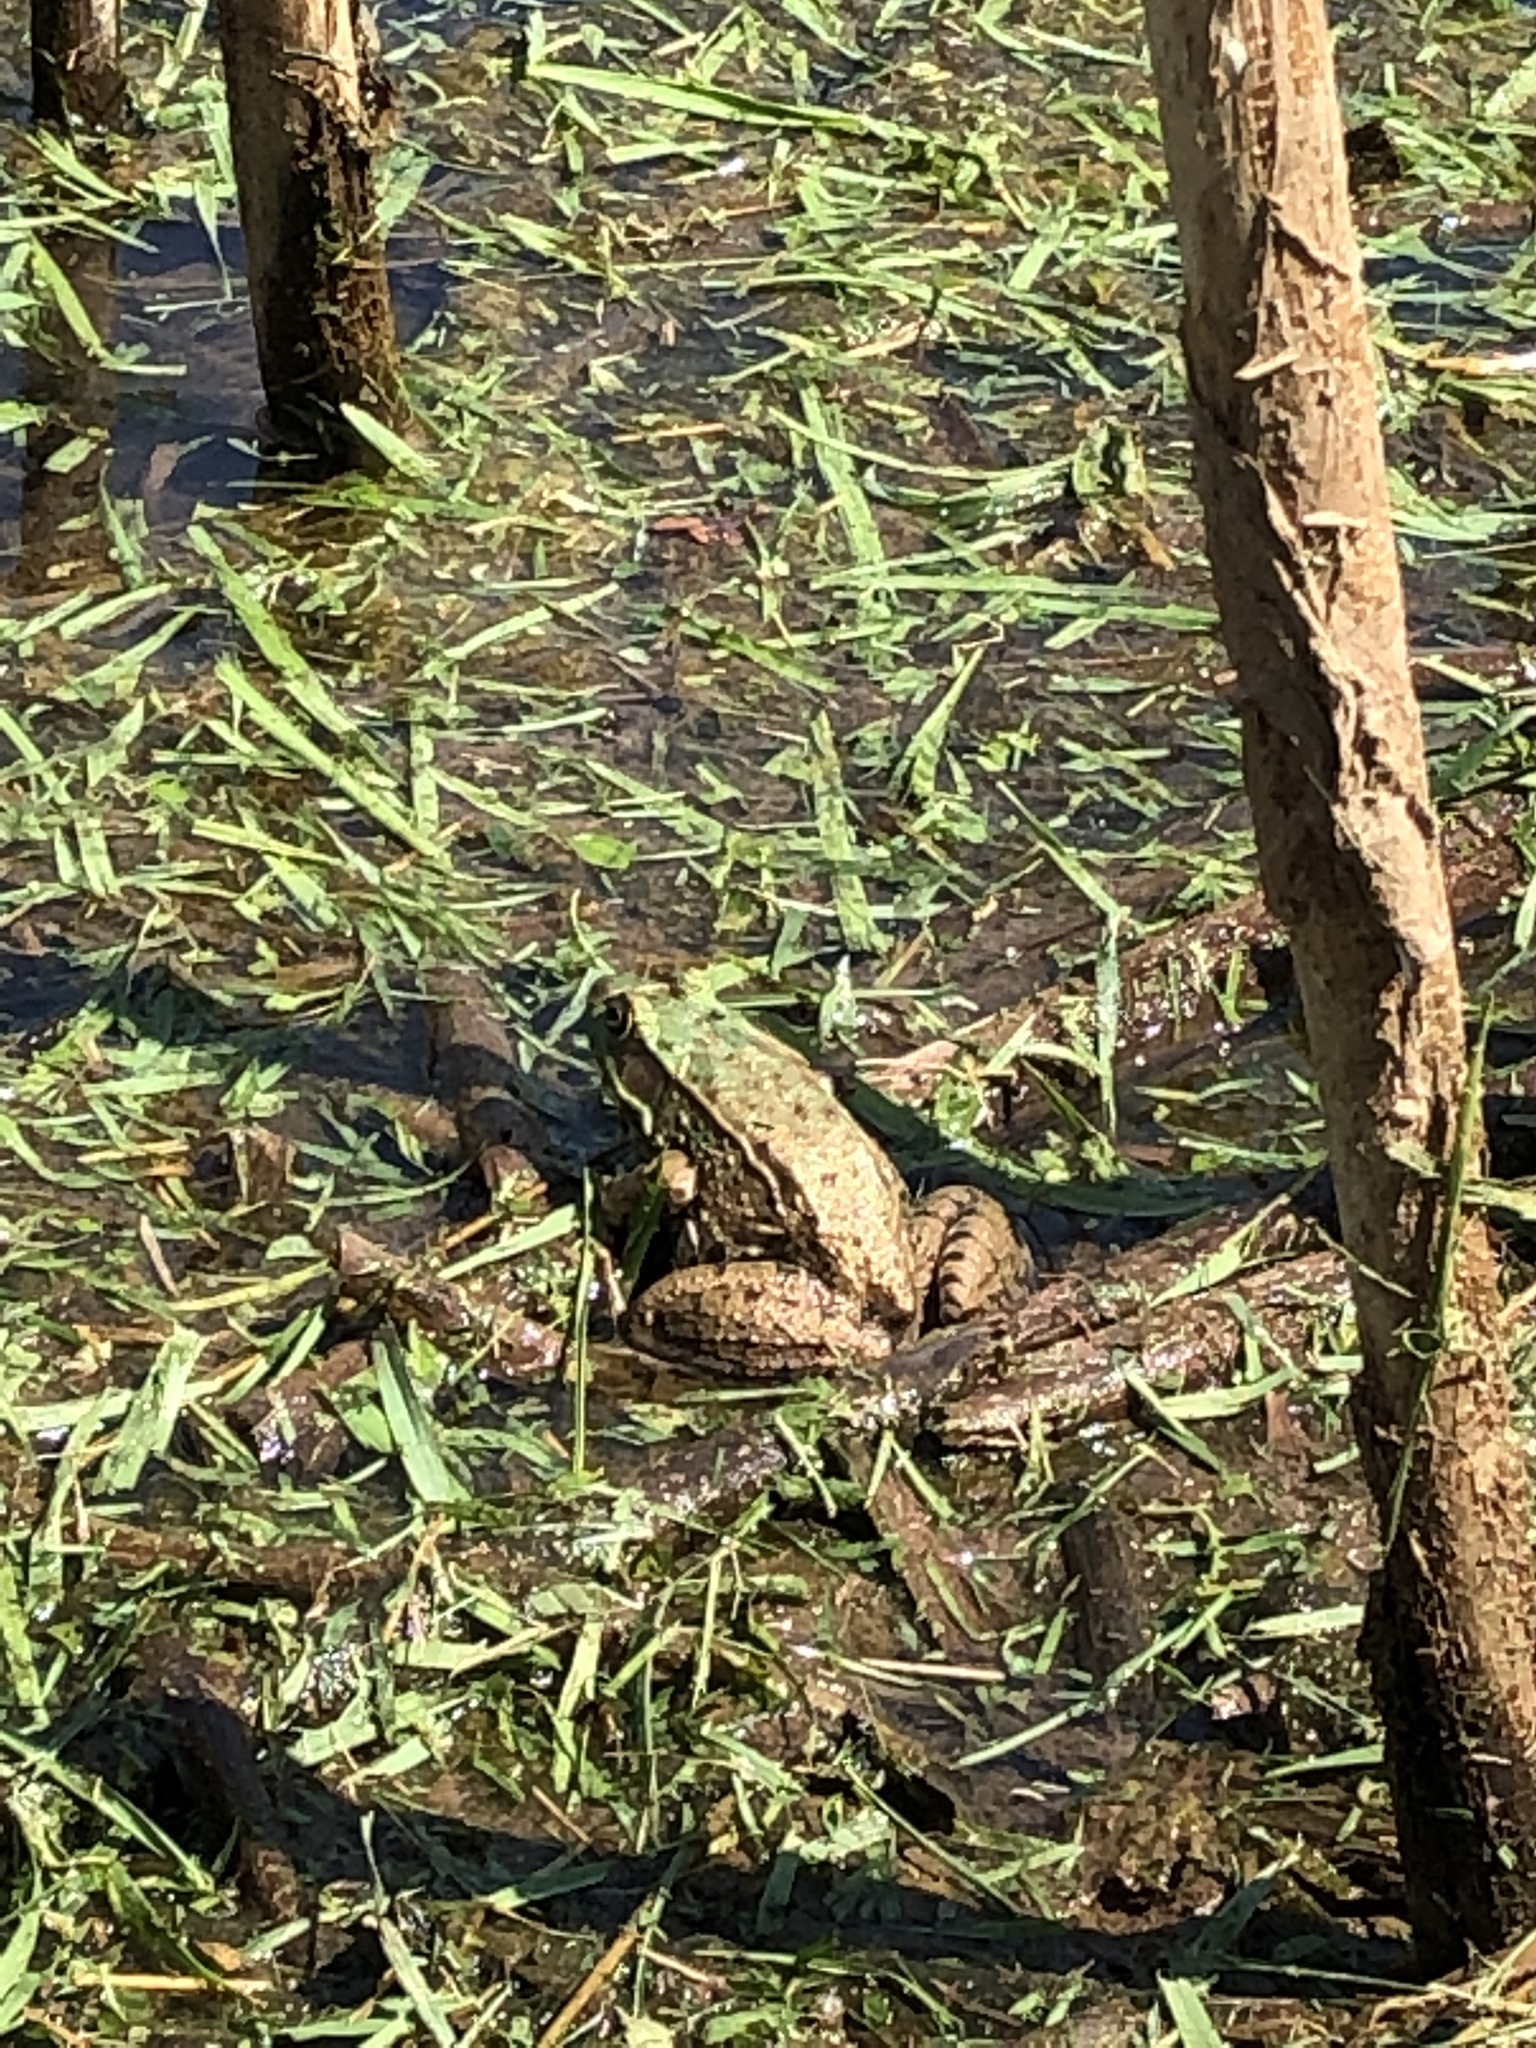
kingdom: Animalia
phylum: Chordata
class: Amphibia
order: Anura
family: Ranidae
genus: Lithobates
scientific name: Lithobates clamitans
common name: Green frog
